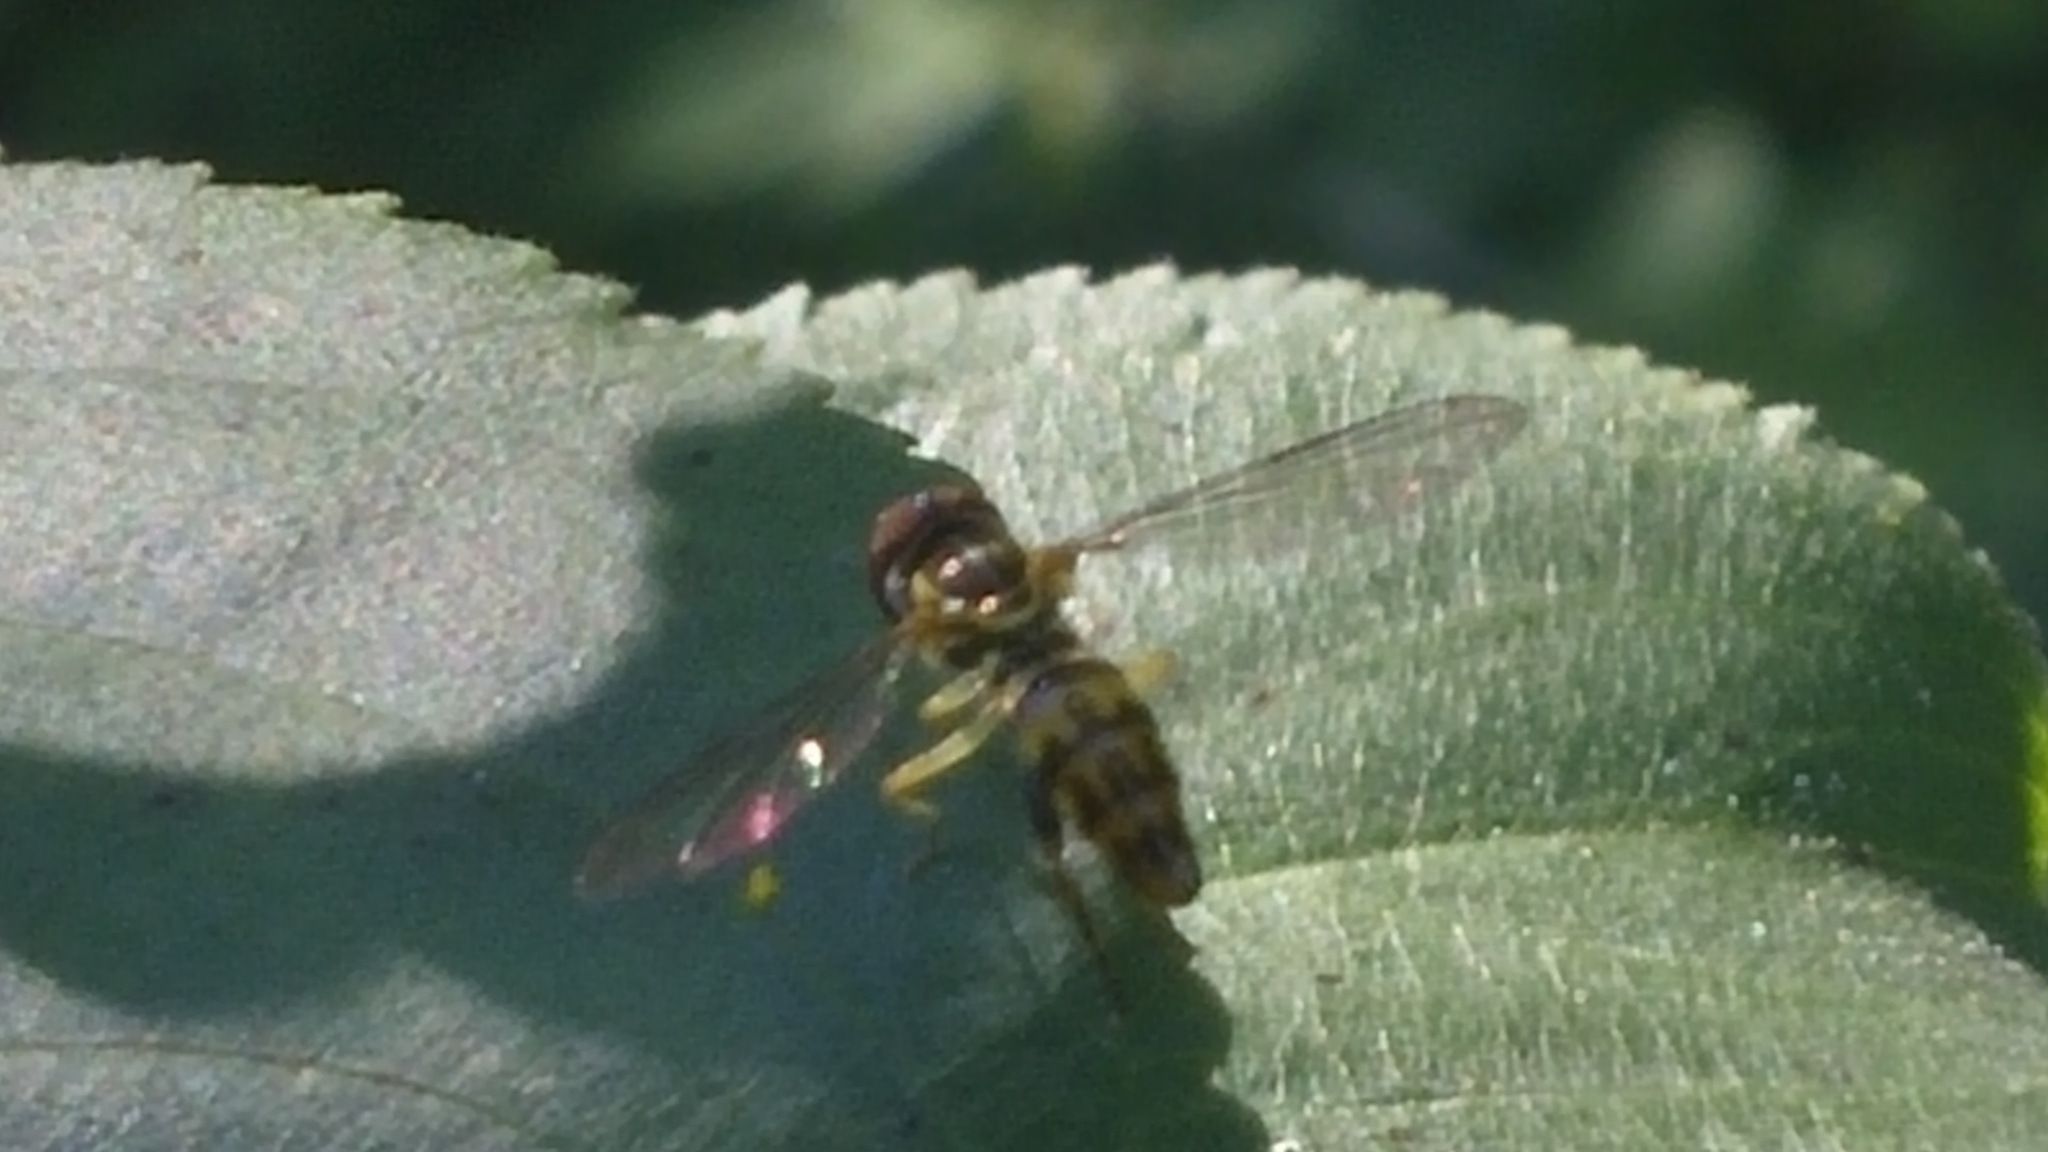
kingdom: Animalia
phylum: Arthropoda
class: Insecta
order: Diptera
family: Syrphidae
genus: Toxomerus
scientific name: Toxomerus geminatus
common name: Eastern calligrapher
